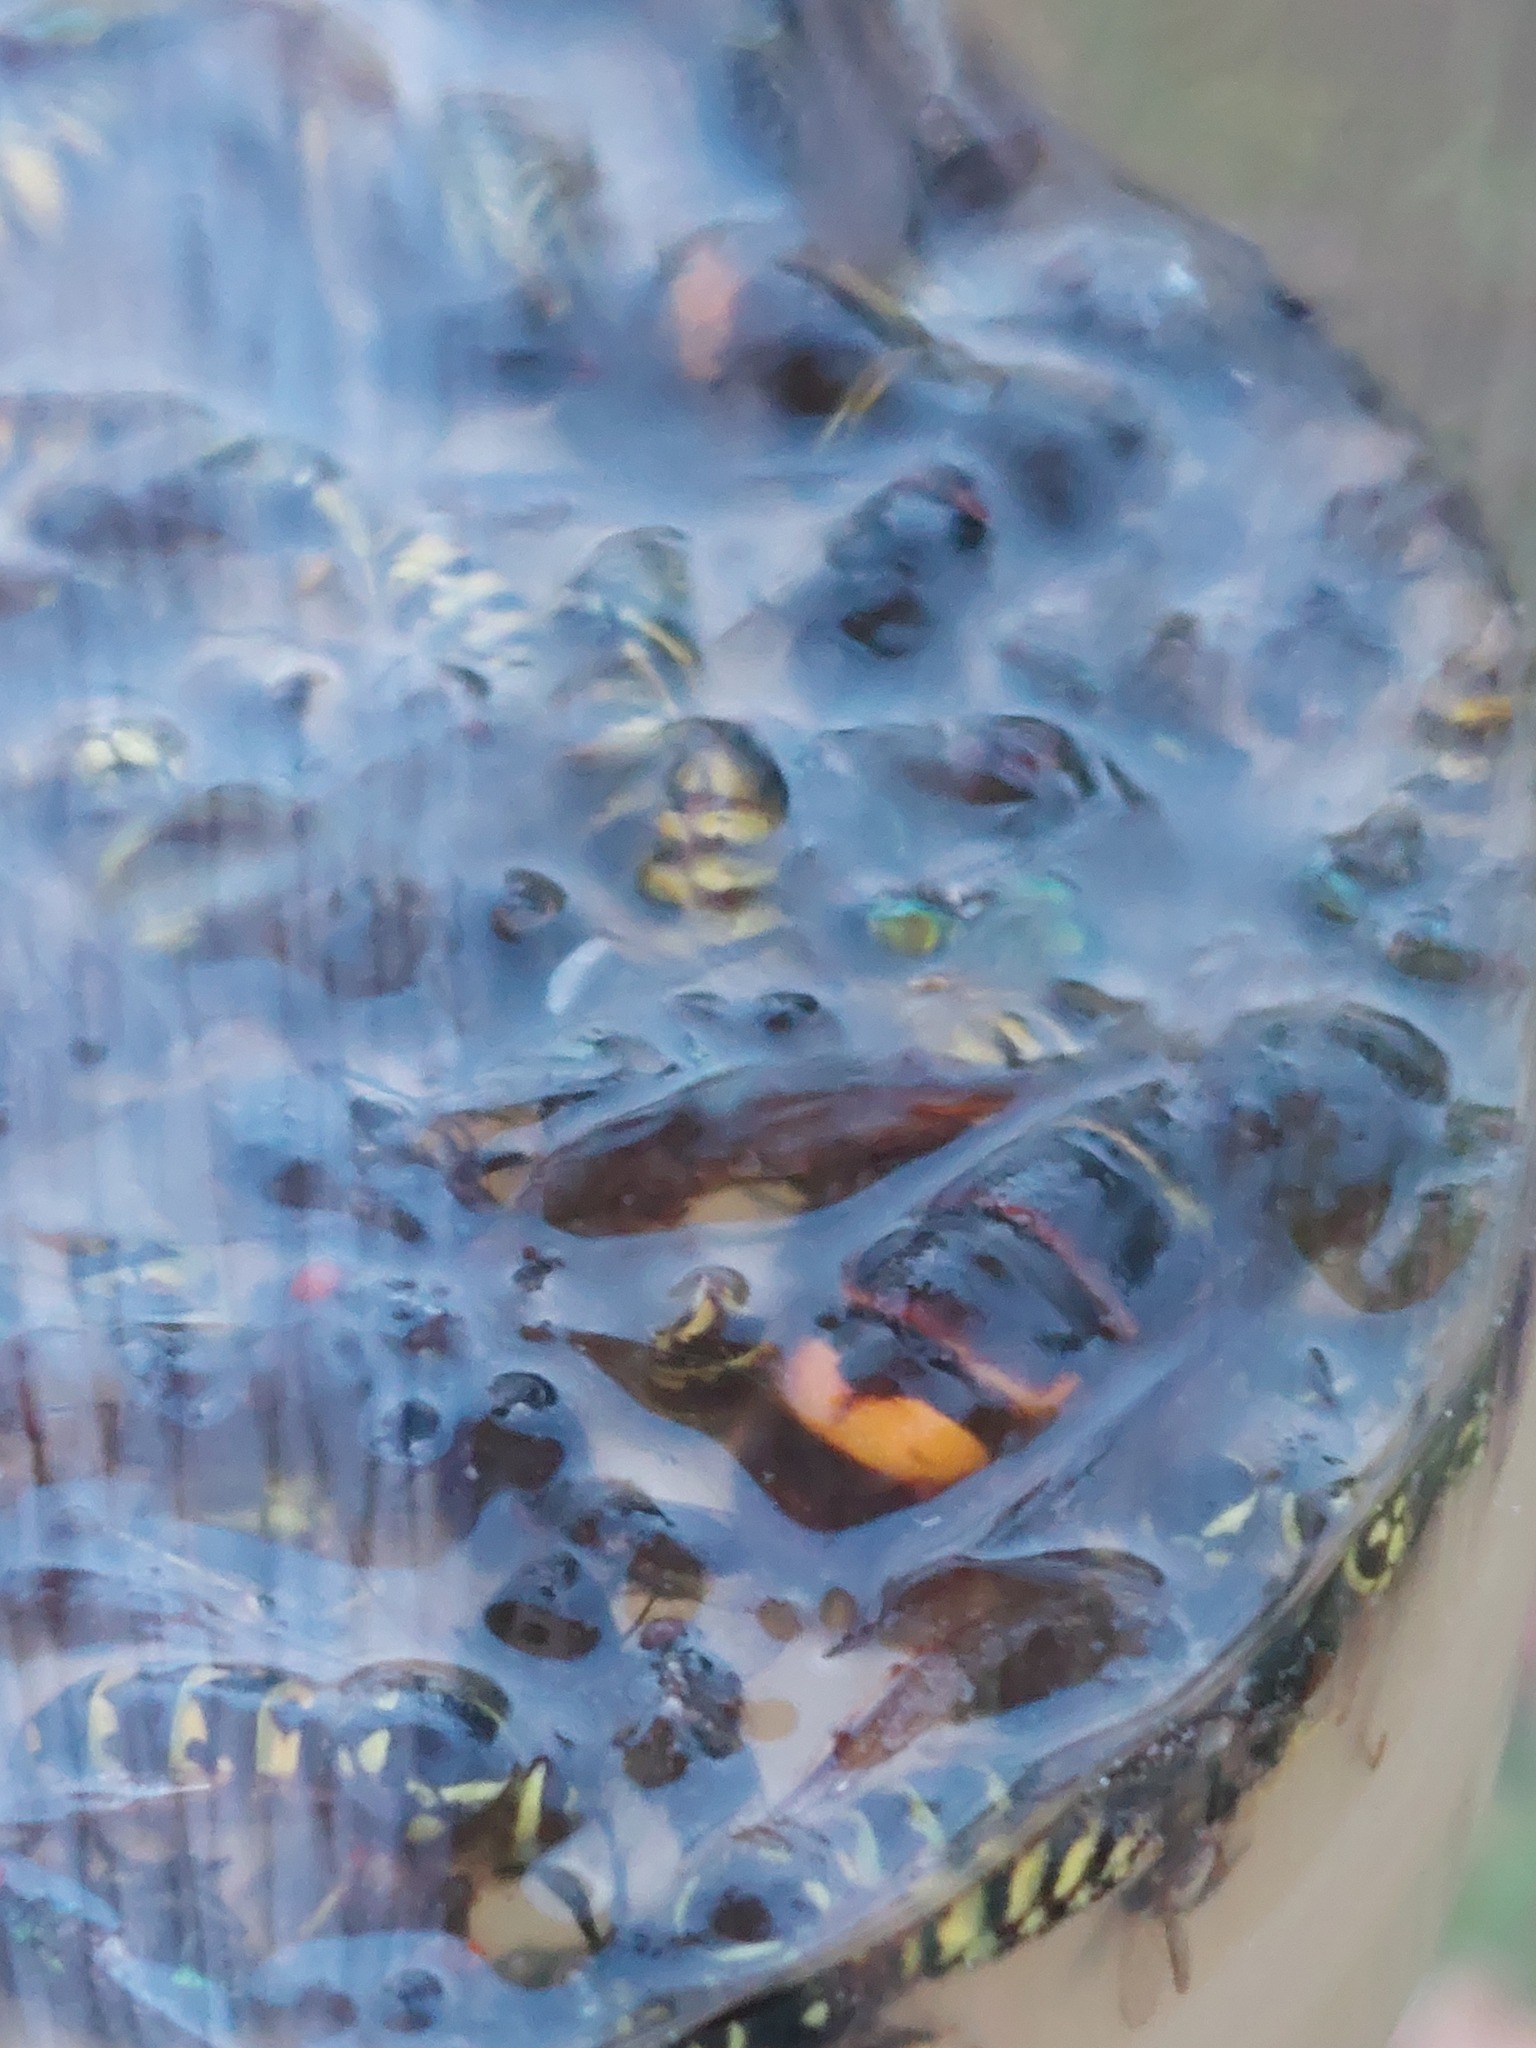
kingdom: Animalia
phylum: Arthropoda
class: Insecta
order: Hymenoptera
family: Vespidae
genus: Vespa
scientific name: Vespa velutina
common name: Asian hornet
